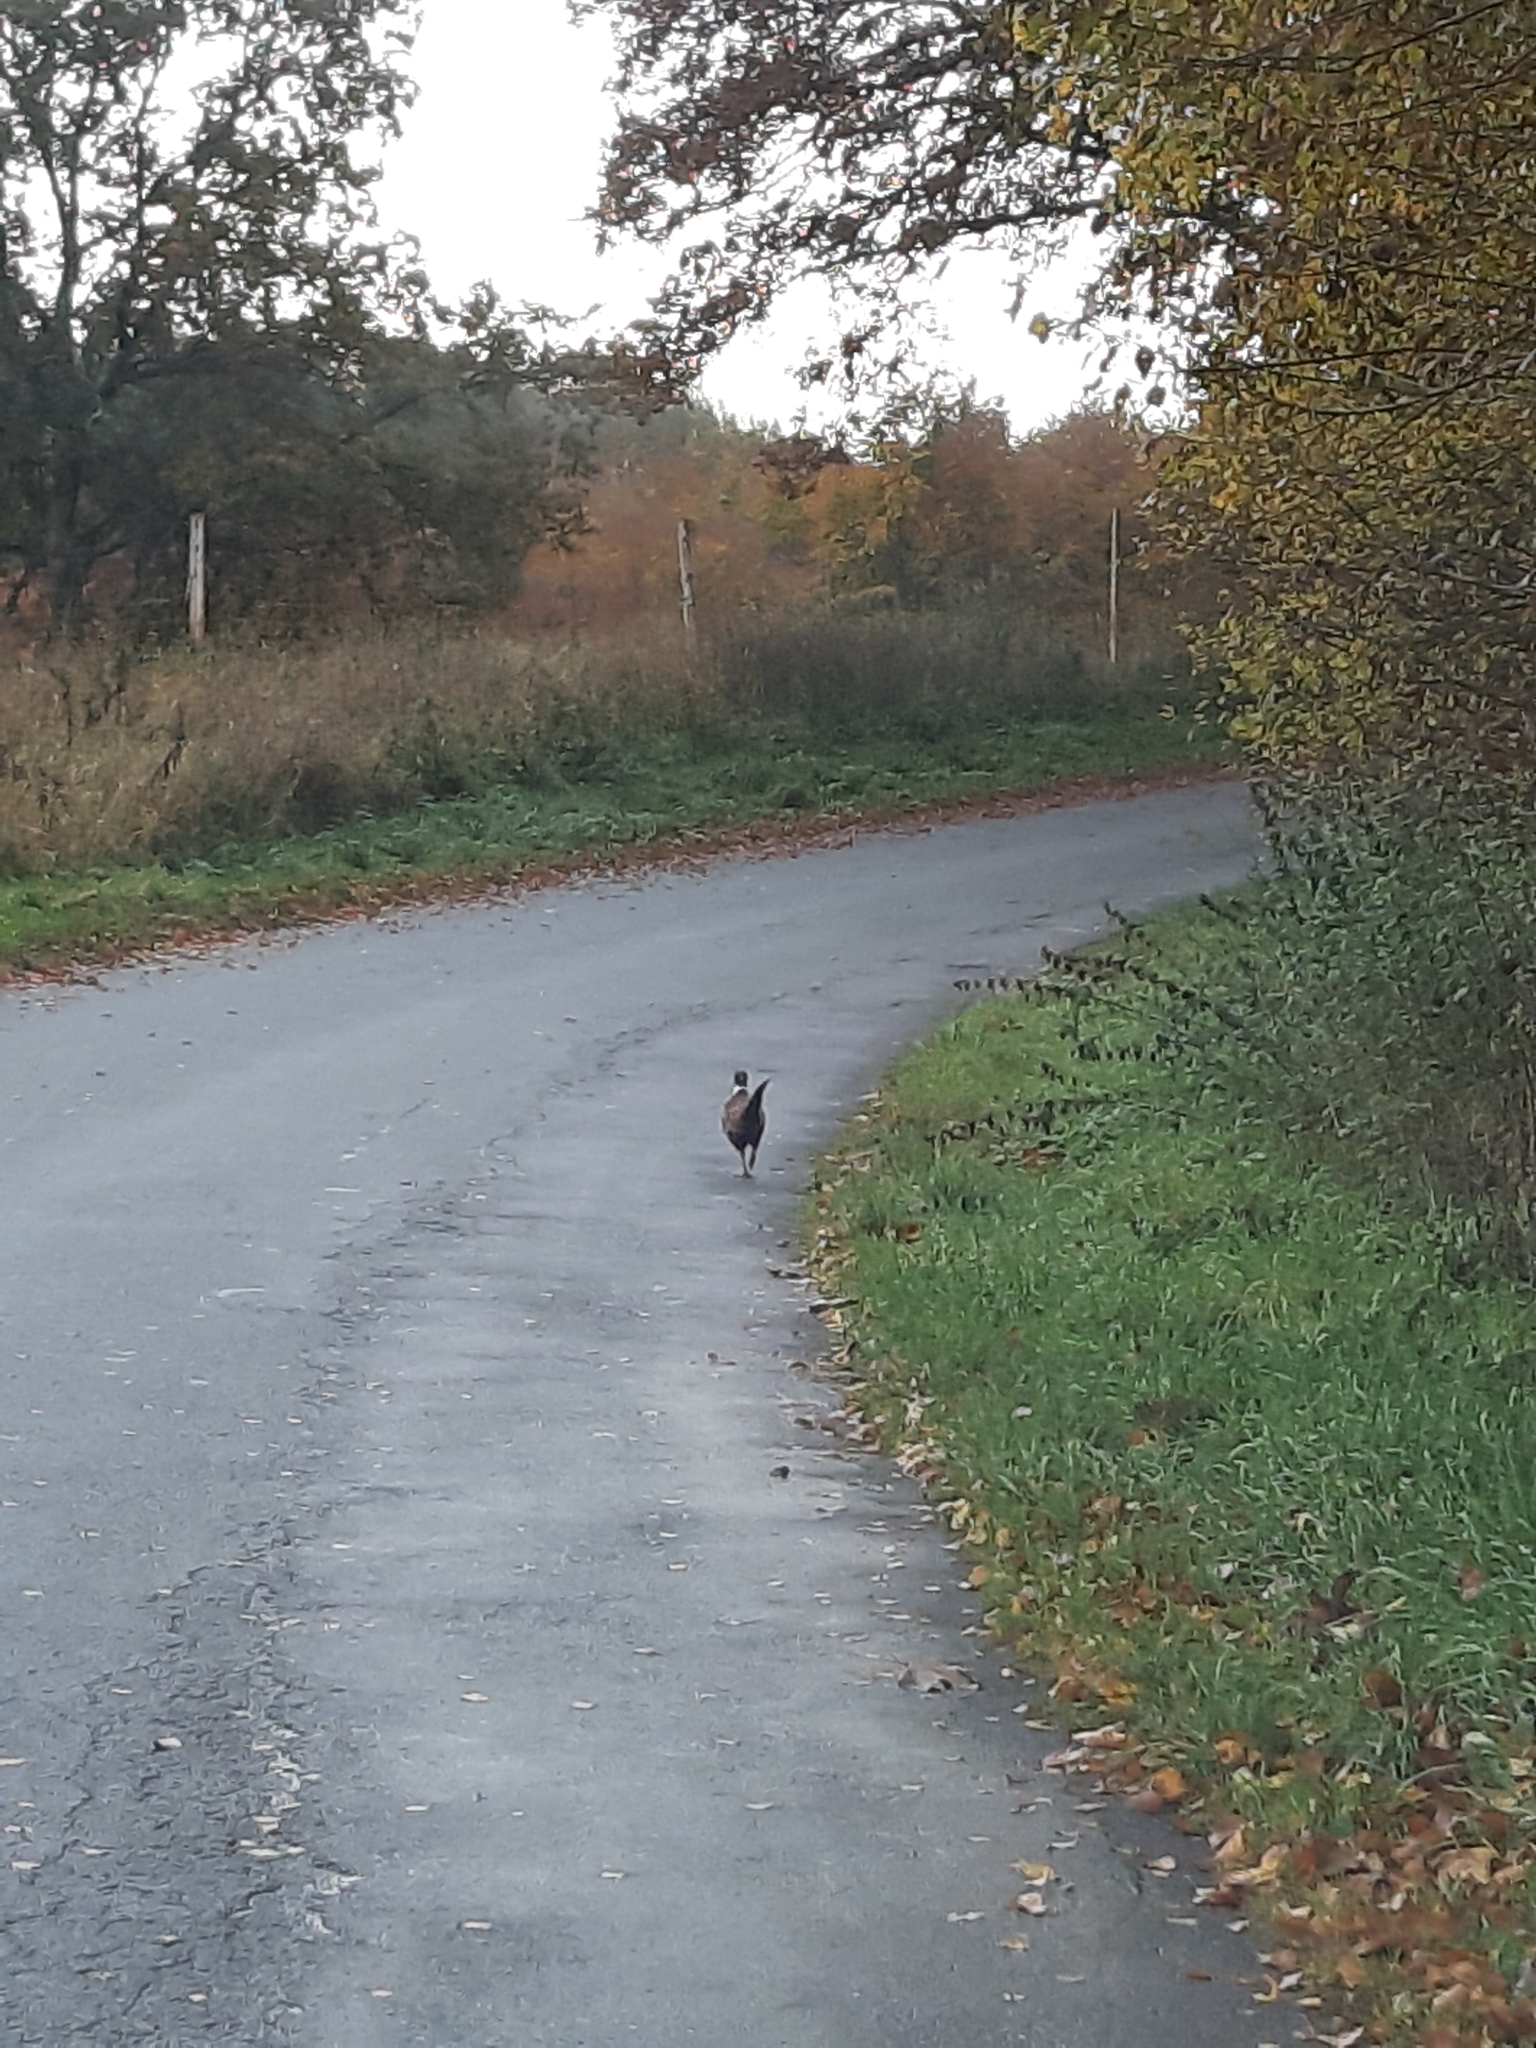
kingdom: Animalia
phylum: Chordata
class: Aves
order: Galliformes
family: Phasianidae
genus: Phasianus
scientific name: Phasianus colchicus
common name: Common pheasant
